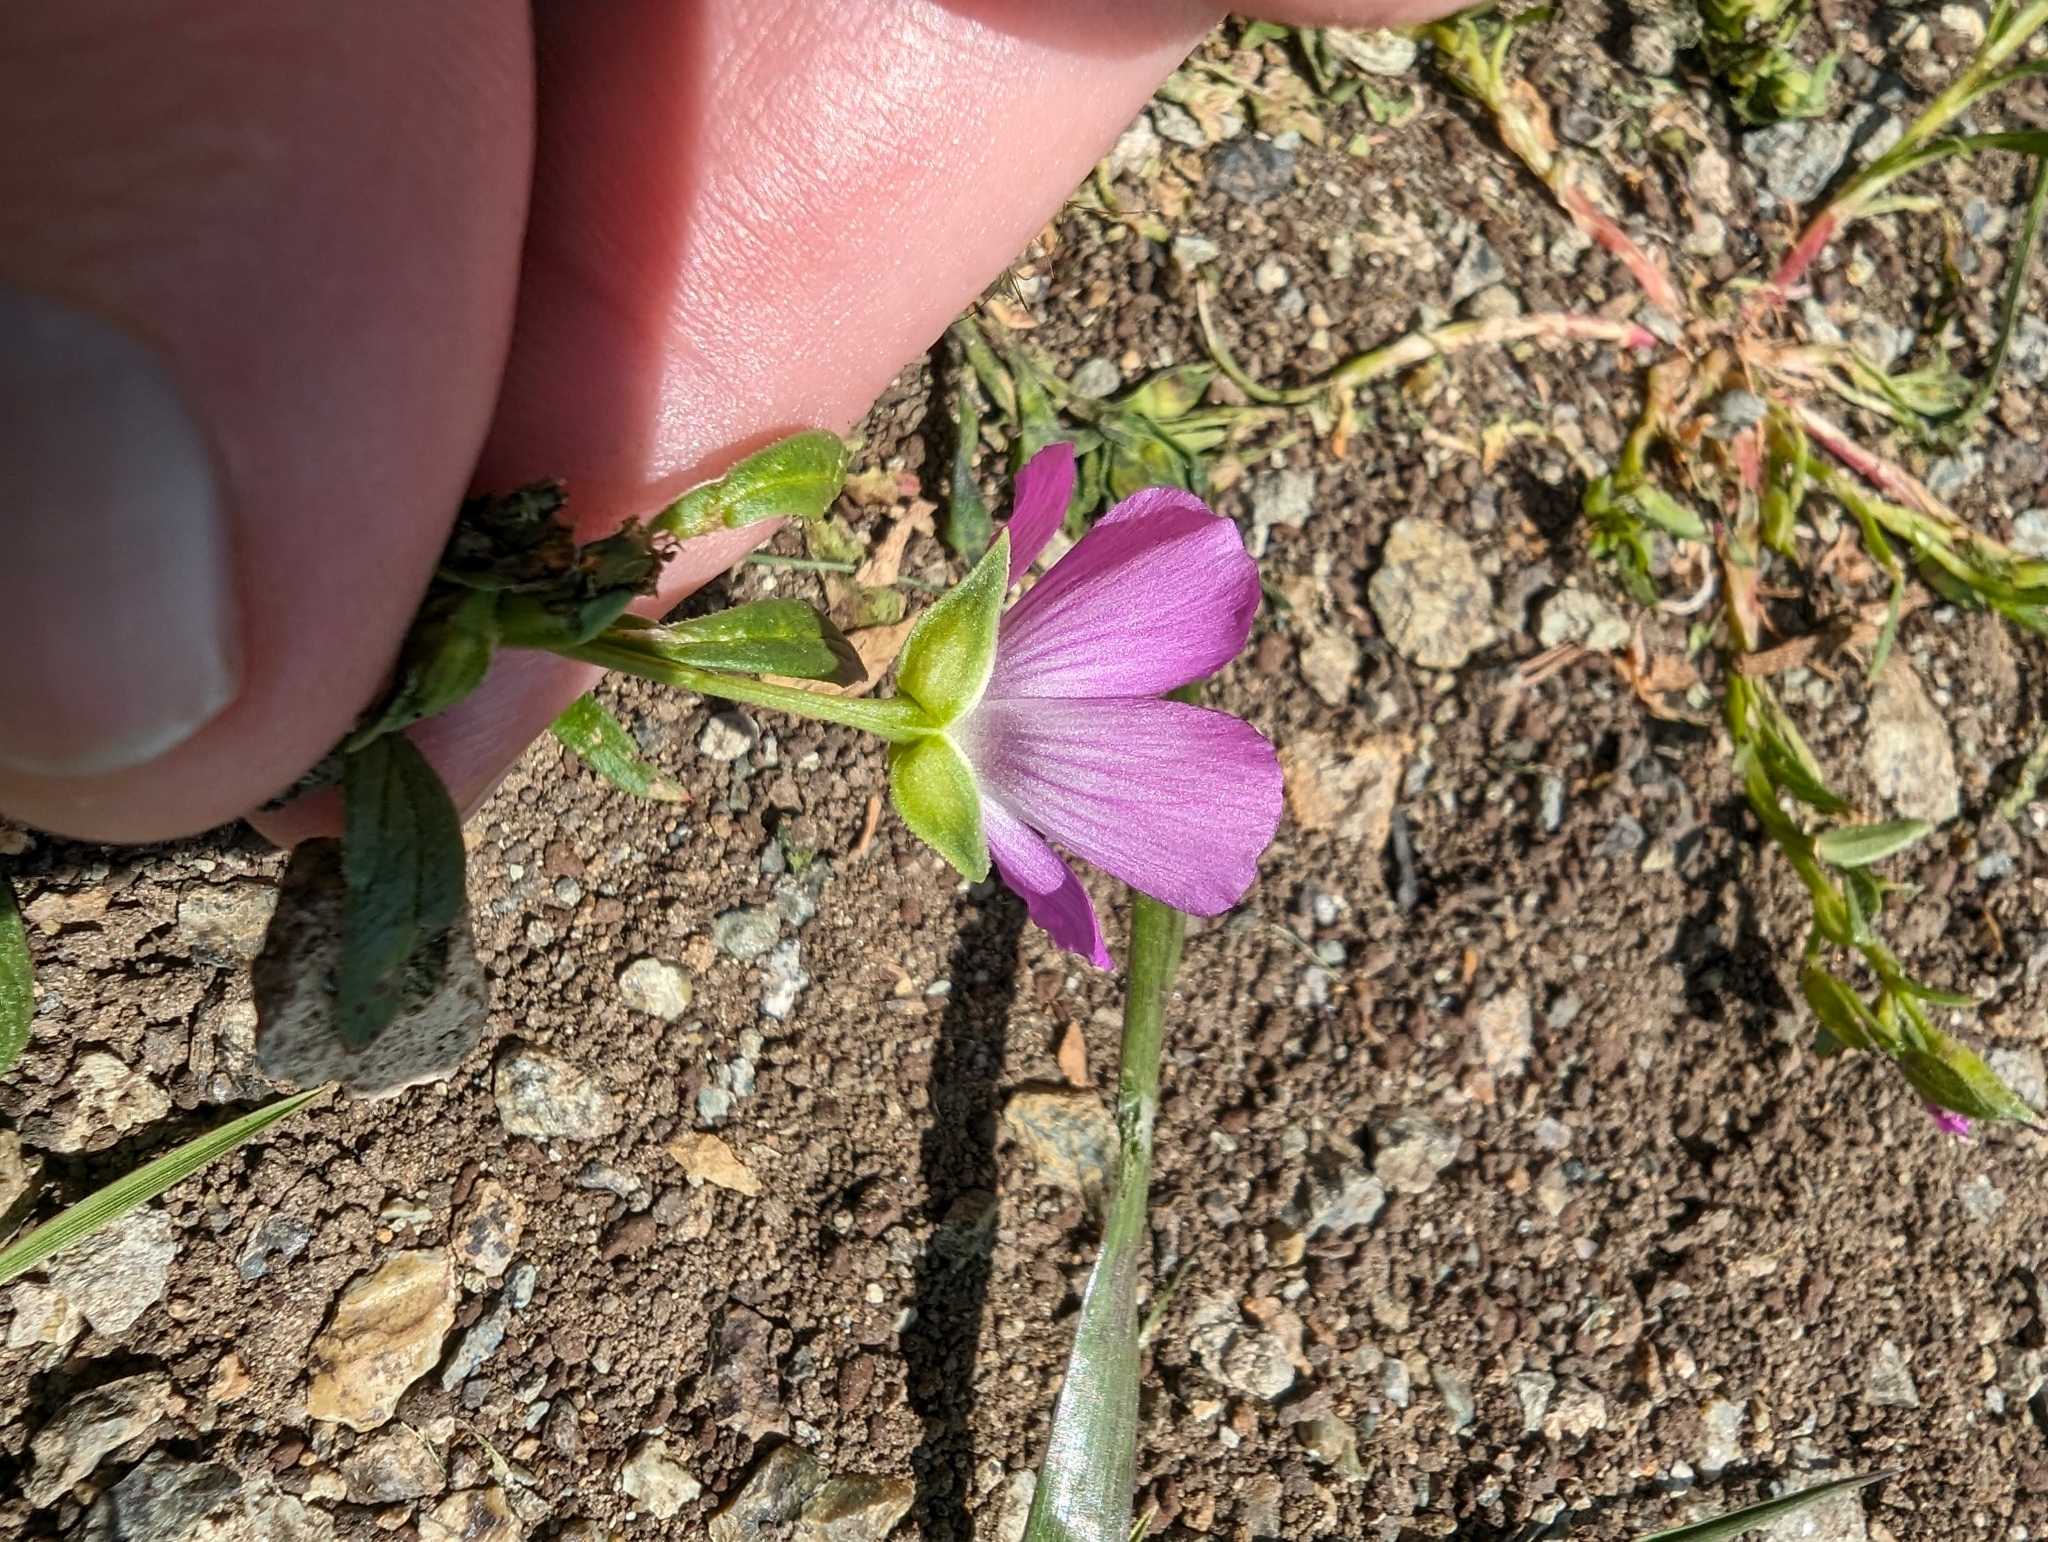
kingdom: Plantae
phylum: Tracheophyta
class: Magnoliopsida
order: Caryophyllales
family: Montiaceae
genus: Calandrinia
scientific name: Calandrinia menziesii
